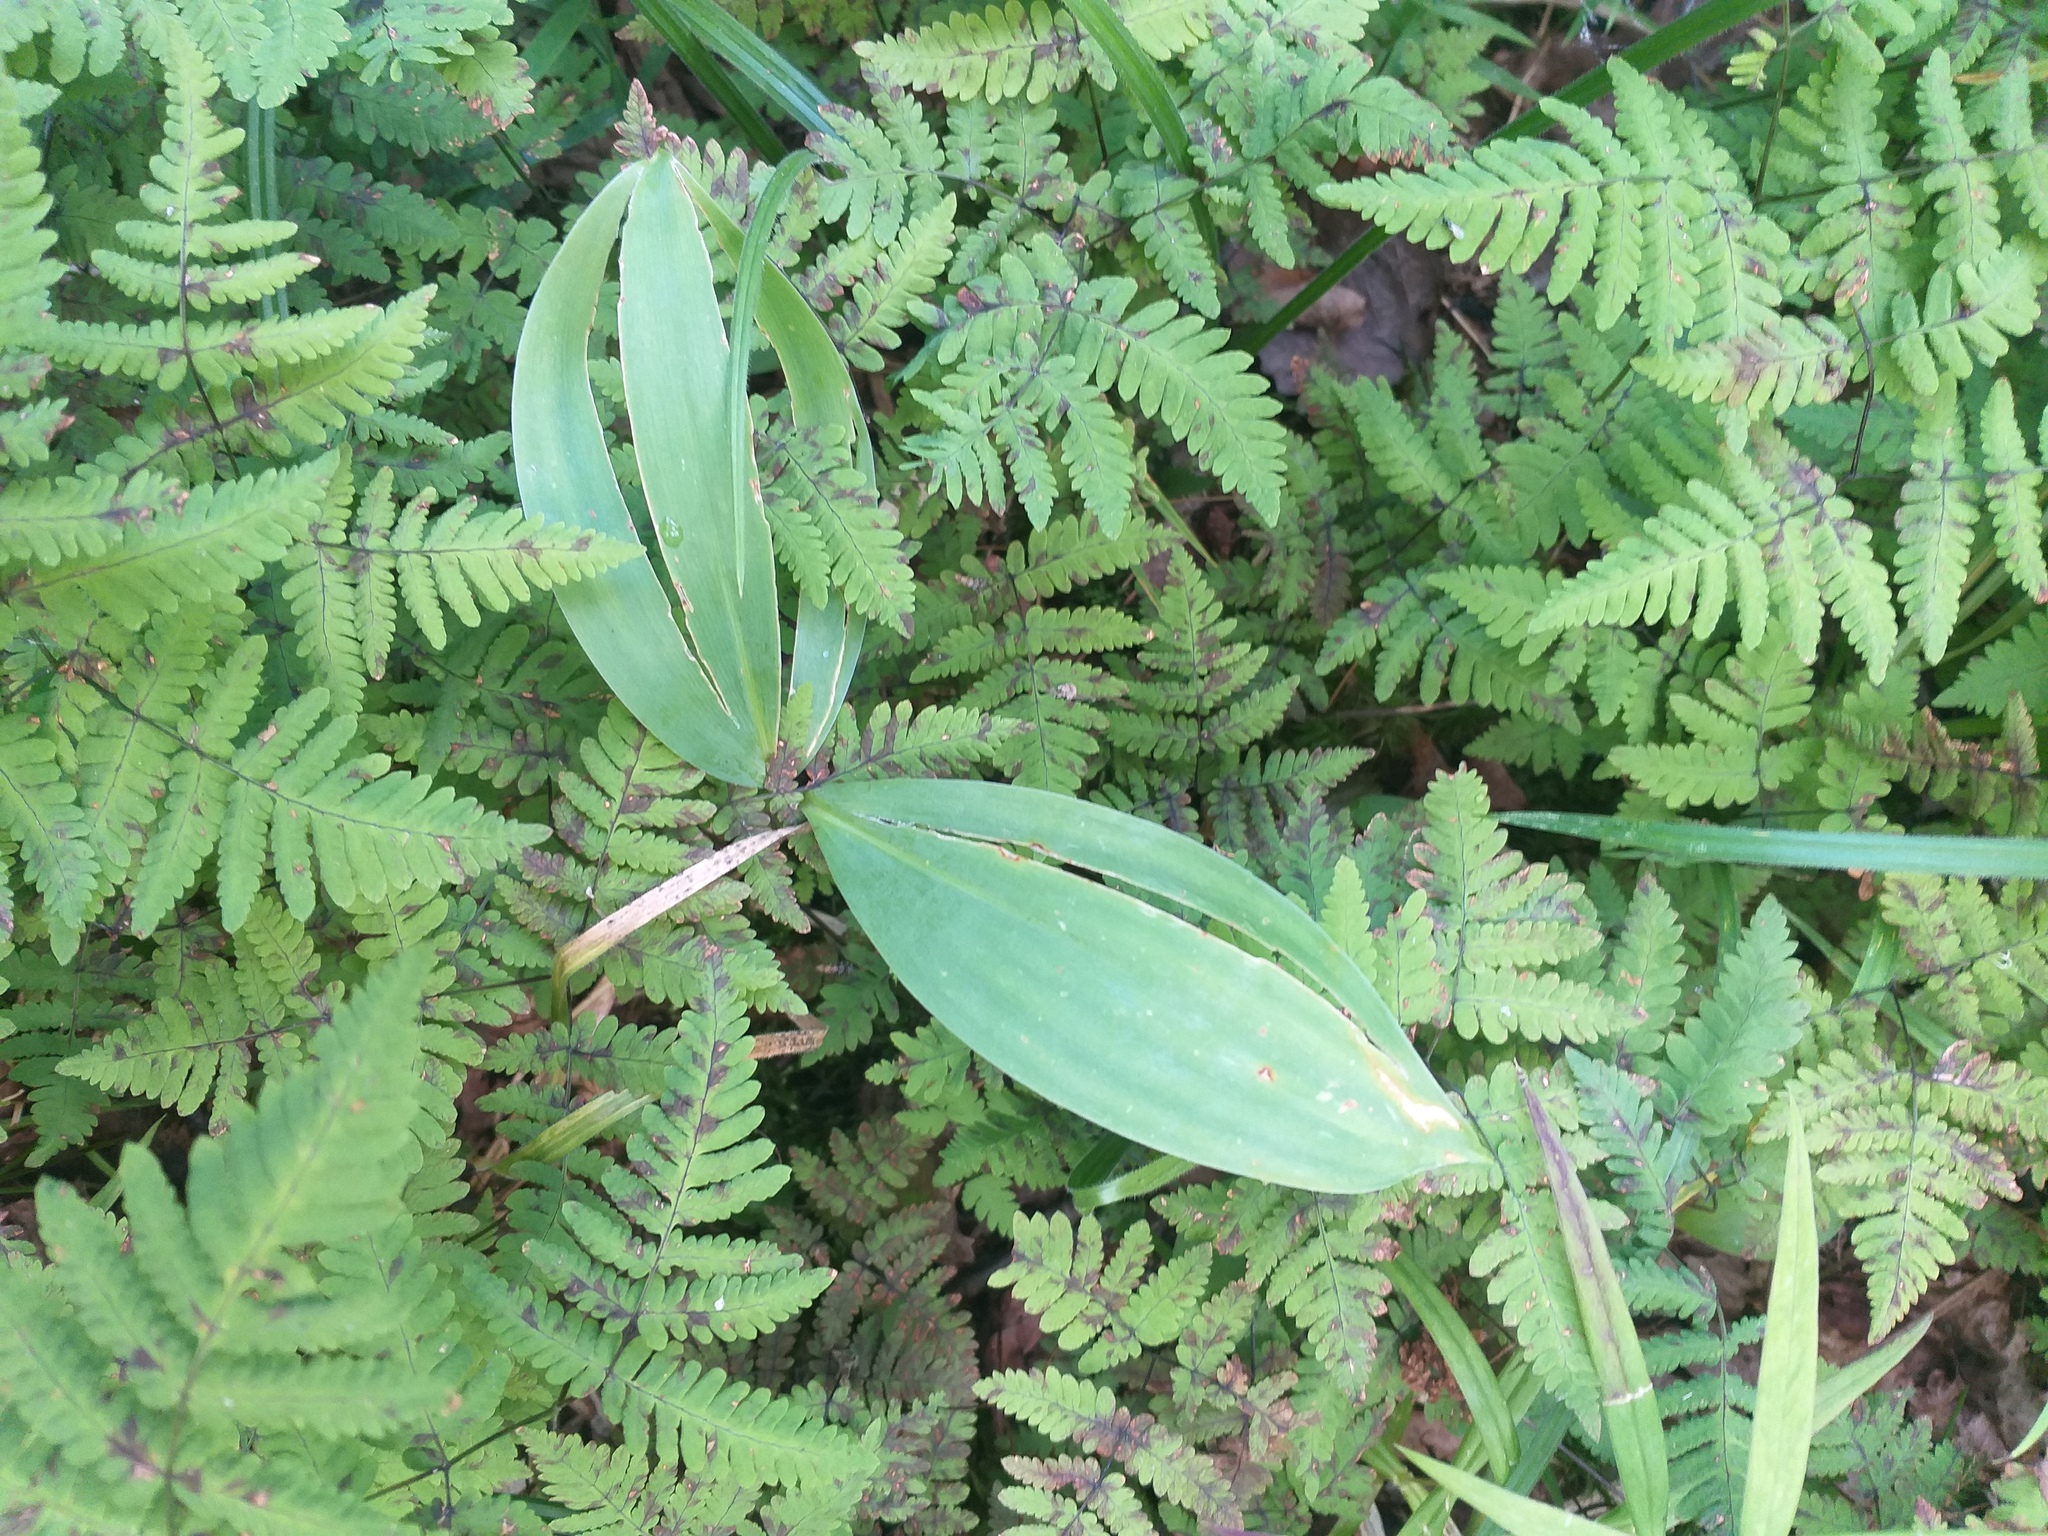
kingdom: Plantae
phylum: Tracheophyta
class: Liliopsida
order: Asparagales
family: Asparagaceae
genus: Convallaria
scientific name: Convallaria majalis
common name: Lily-of-the-valley
